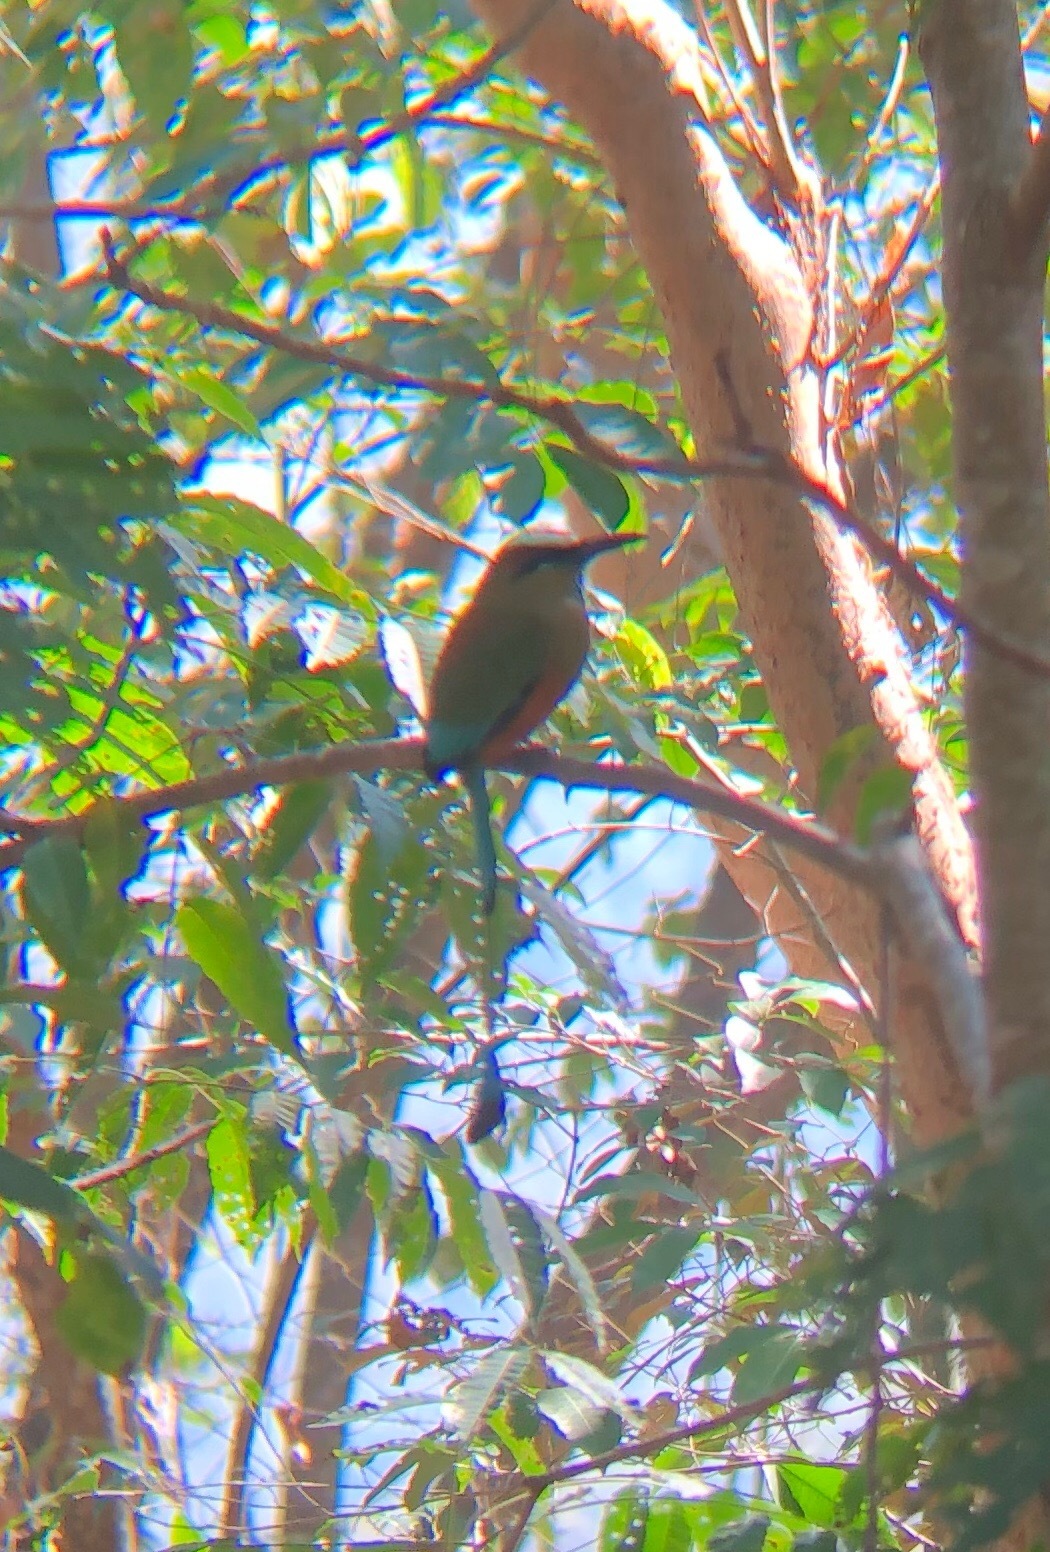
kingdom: Animalia
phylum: Chordata
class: Aves
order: Coraciiformes
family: Momotidae
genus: Eumomota
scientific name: Eumomota superciliosa
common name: Turquoise-browed motmot
